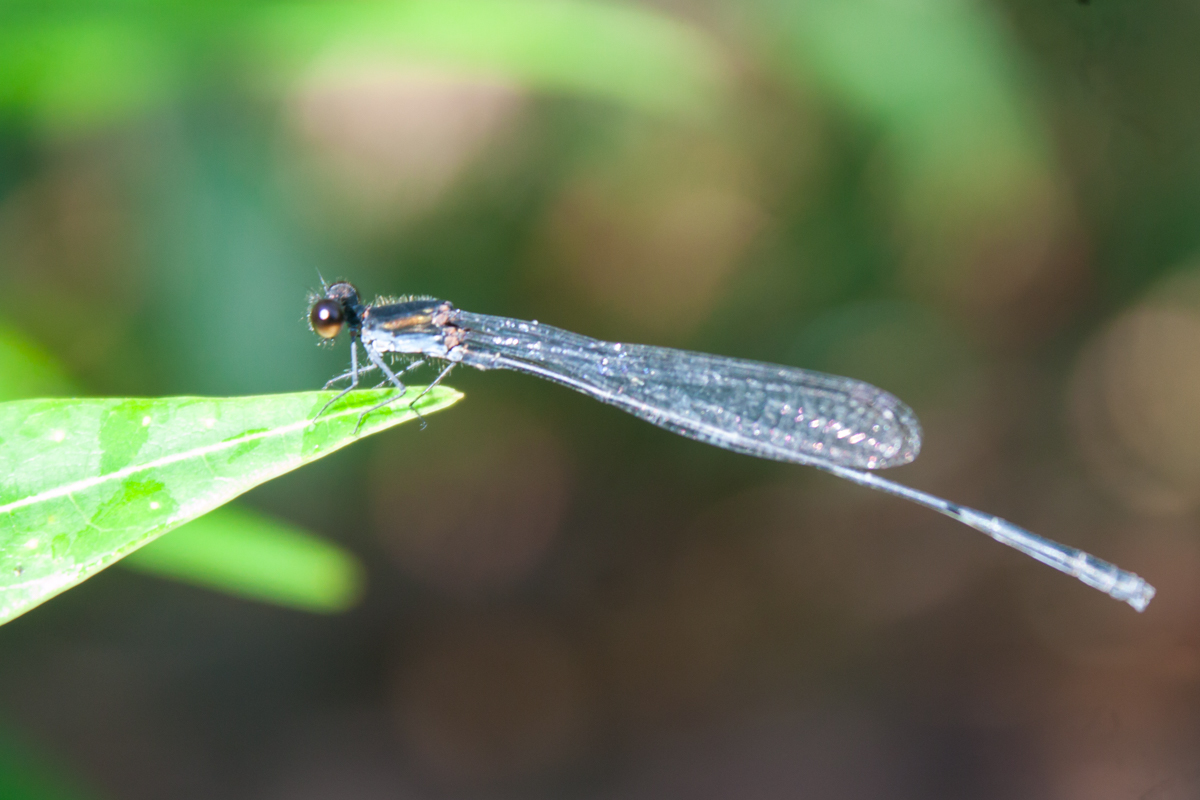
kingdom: Animalia
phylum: Arthropoda
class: Insecta
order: Odonata
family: Platycnemididae
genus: Prodasineura
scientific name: Prodasineura autumnalis
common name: Black threadtail
